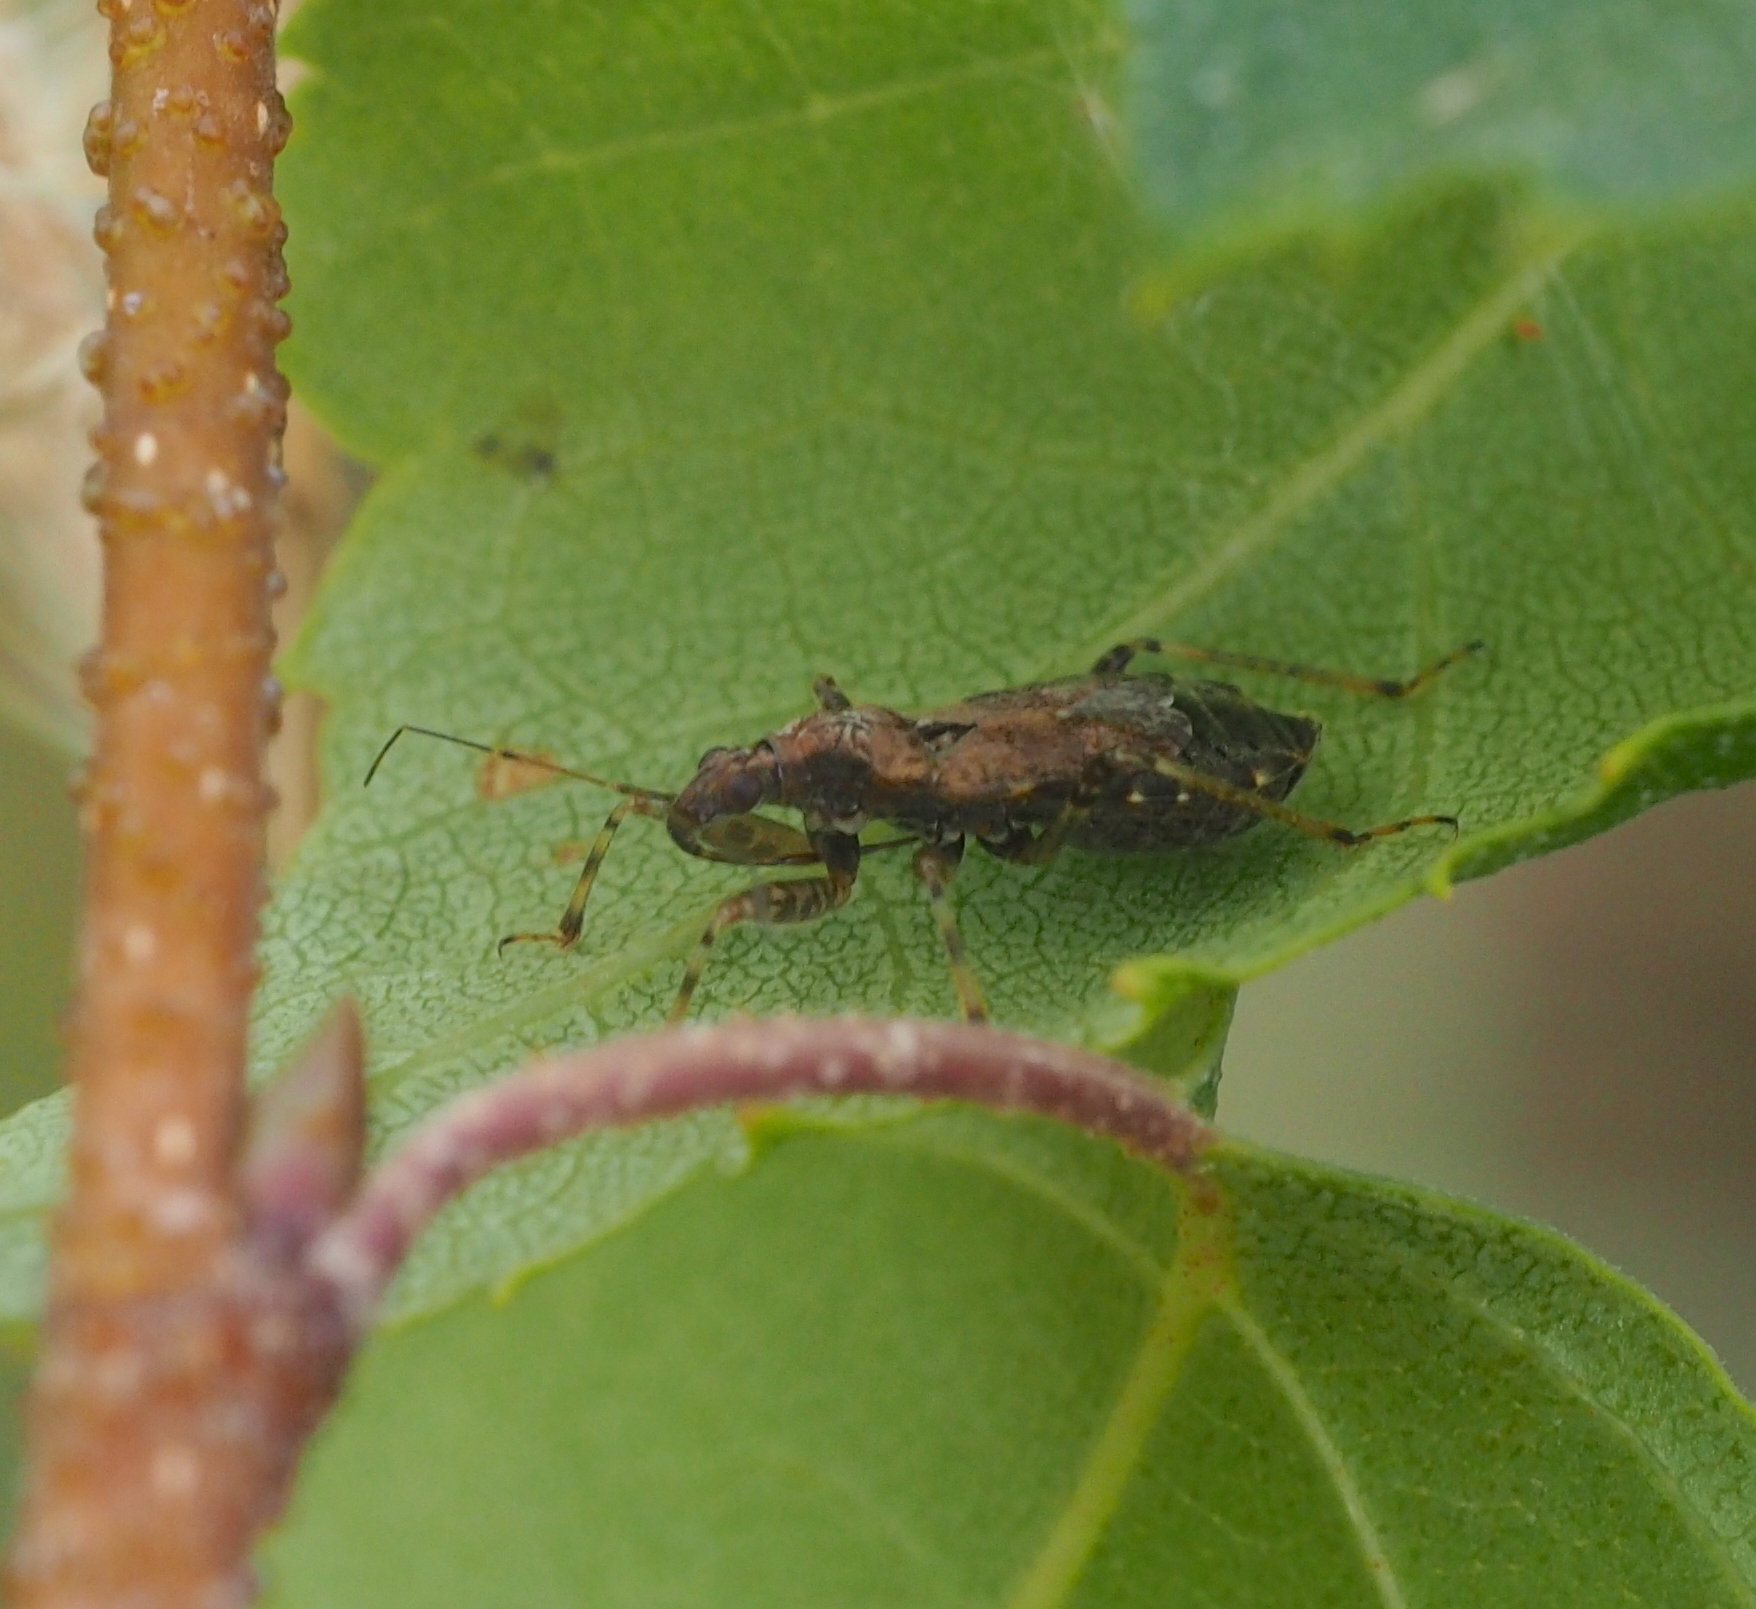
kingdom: Animalia
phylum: Arthropoda
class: Insecta
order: Hemiptera
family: Nabidae
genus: Himacerus
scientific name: Himacerus mirmicoides
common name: Ant damsel bug
